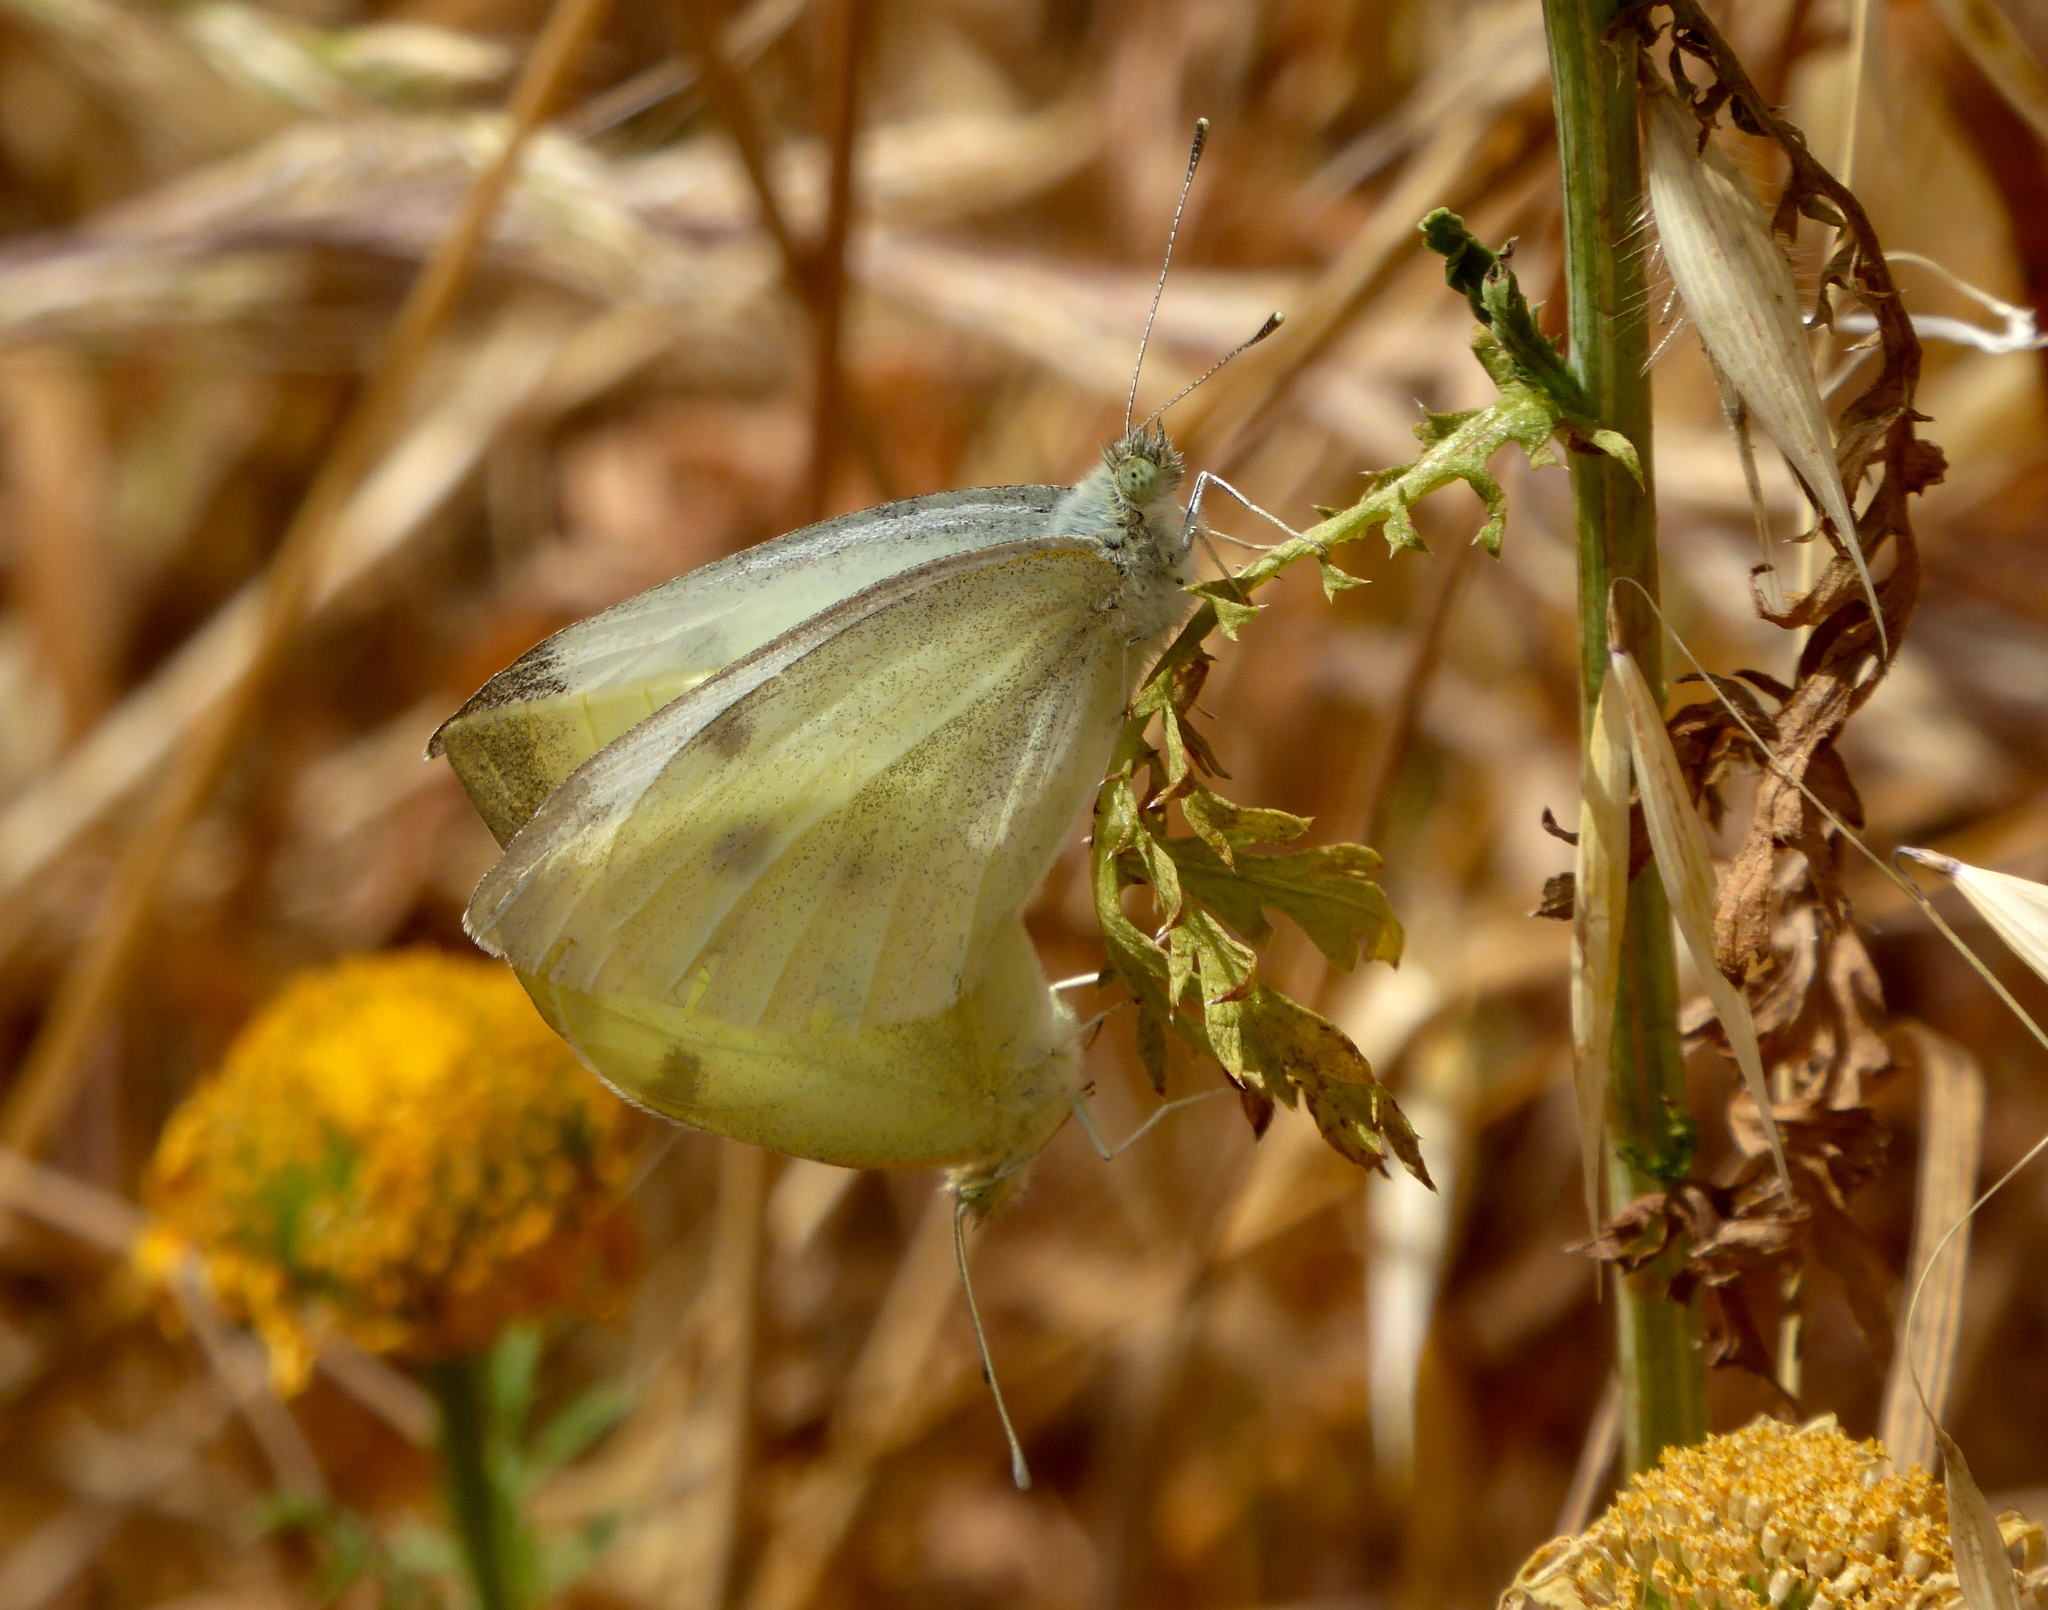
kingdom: Animalia
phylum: Arthropoda
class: Insecta
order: Lepidoptera
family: Pieridae
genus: Pieris
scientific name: Pieris rapae
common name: Small white
